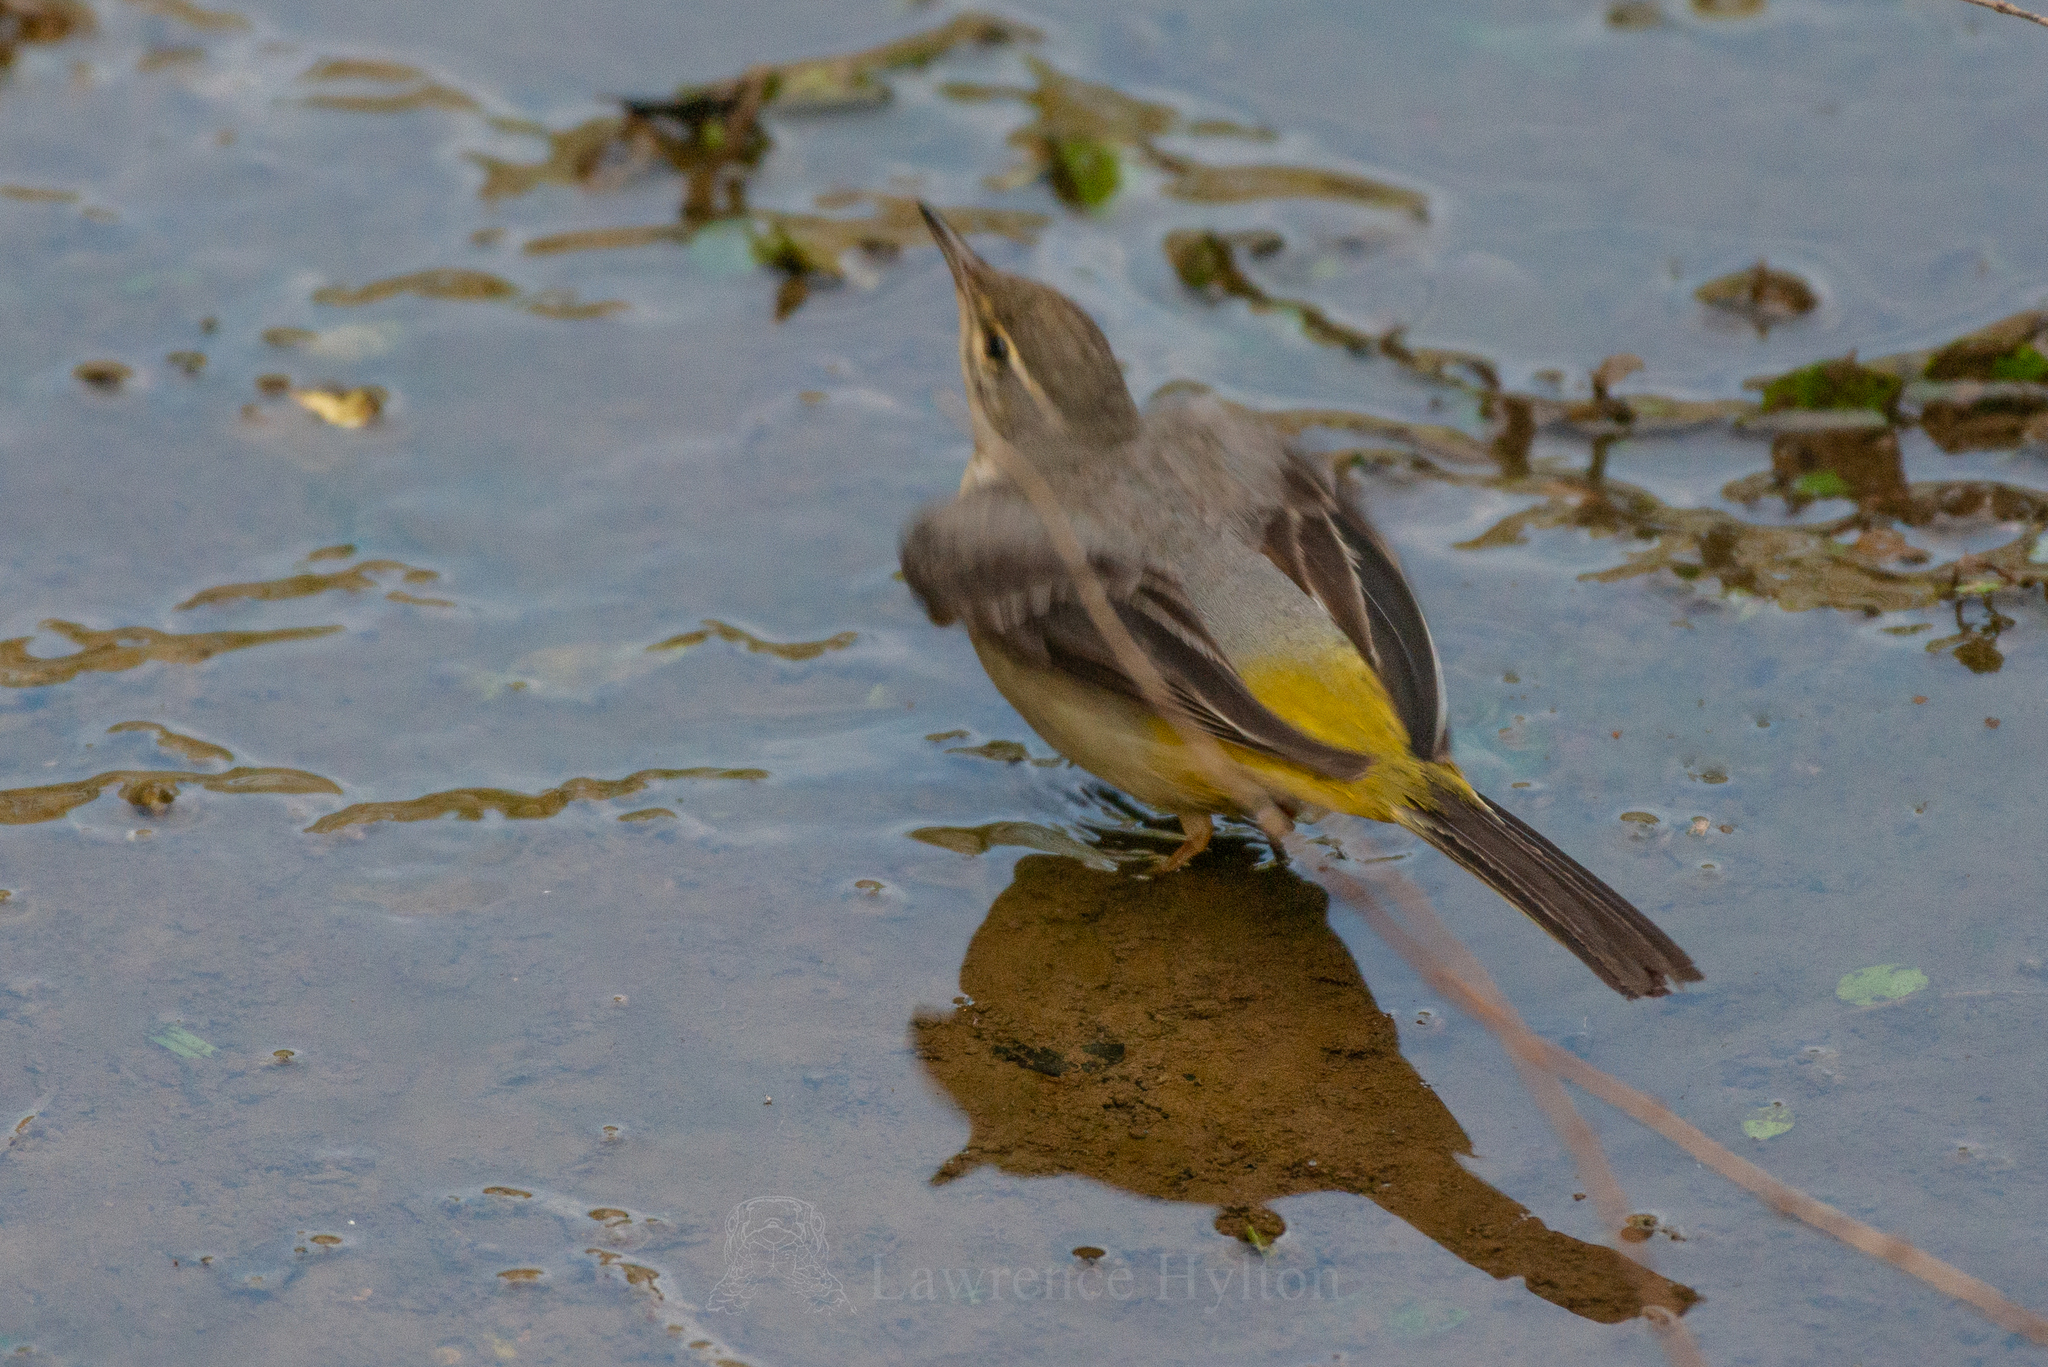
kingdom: Animalia
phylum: Chordata
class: Aves
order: Passeriformes
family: Motacillidae
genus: Motacilla
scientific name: Motacilla cinerea
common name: Grey wagtail
